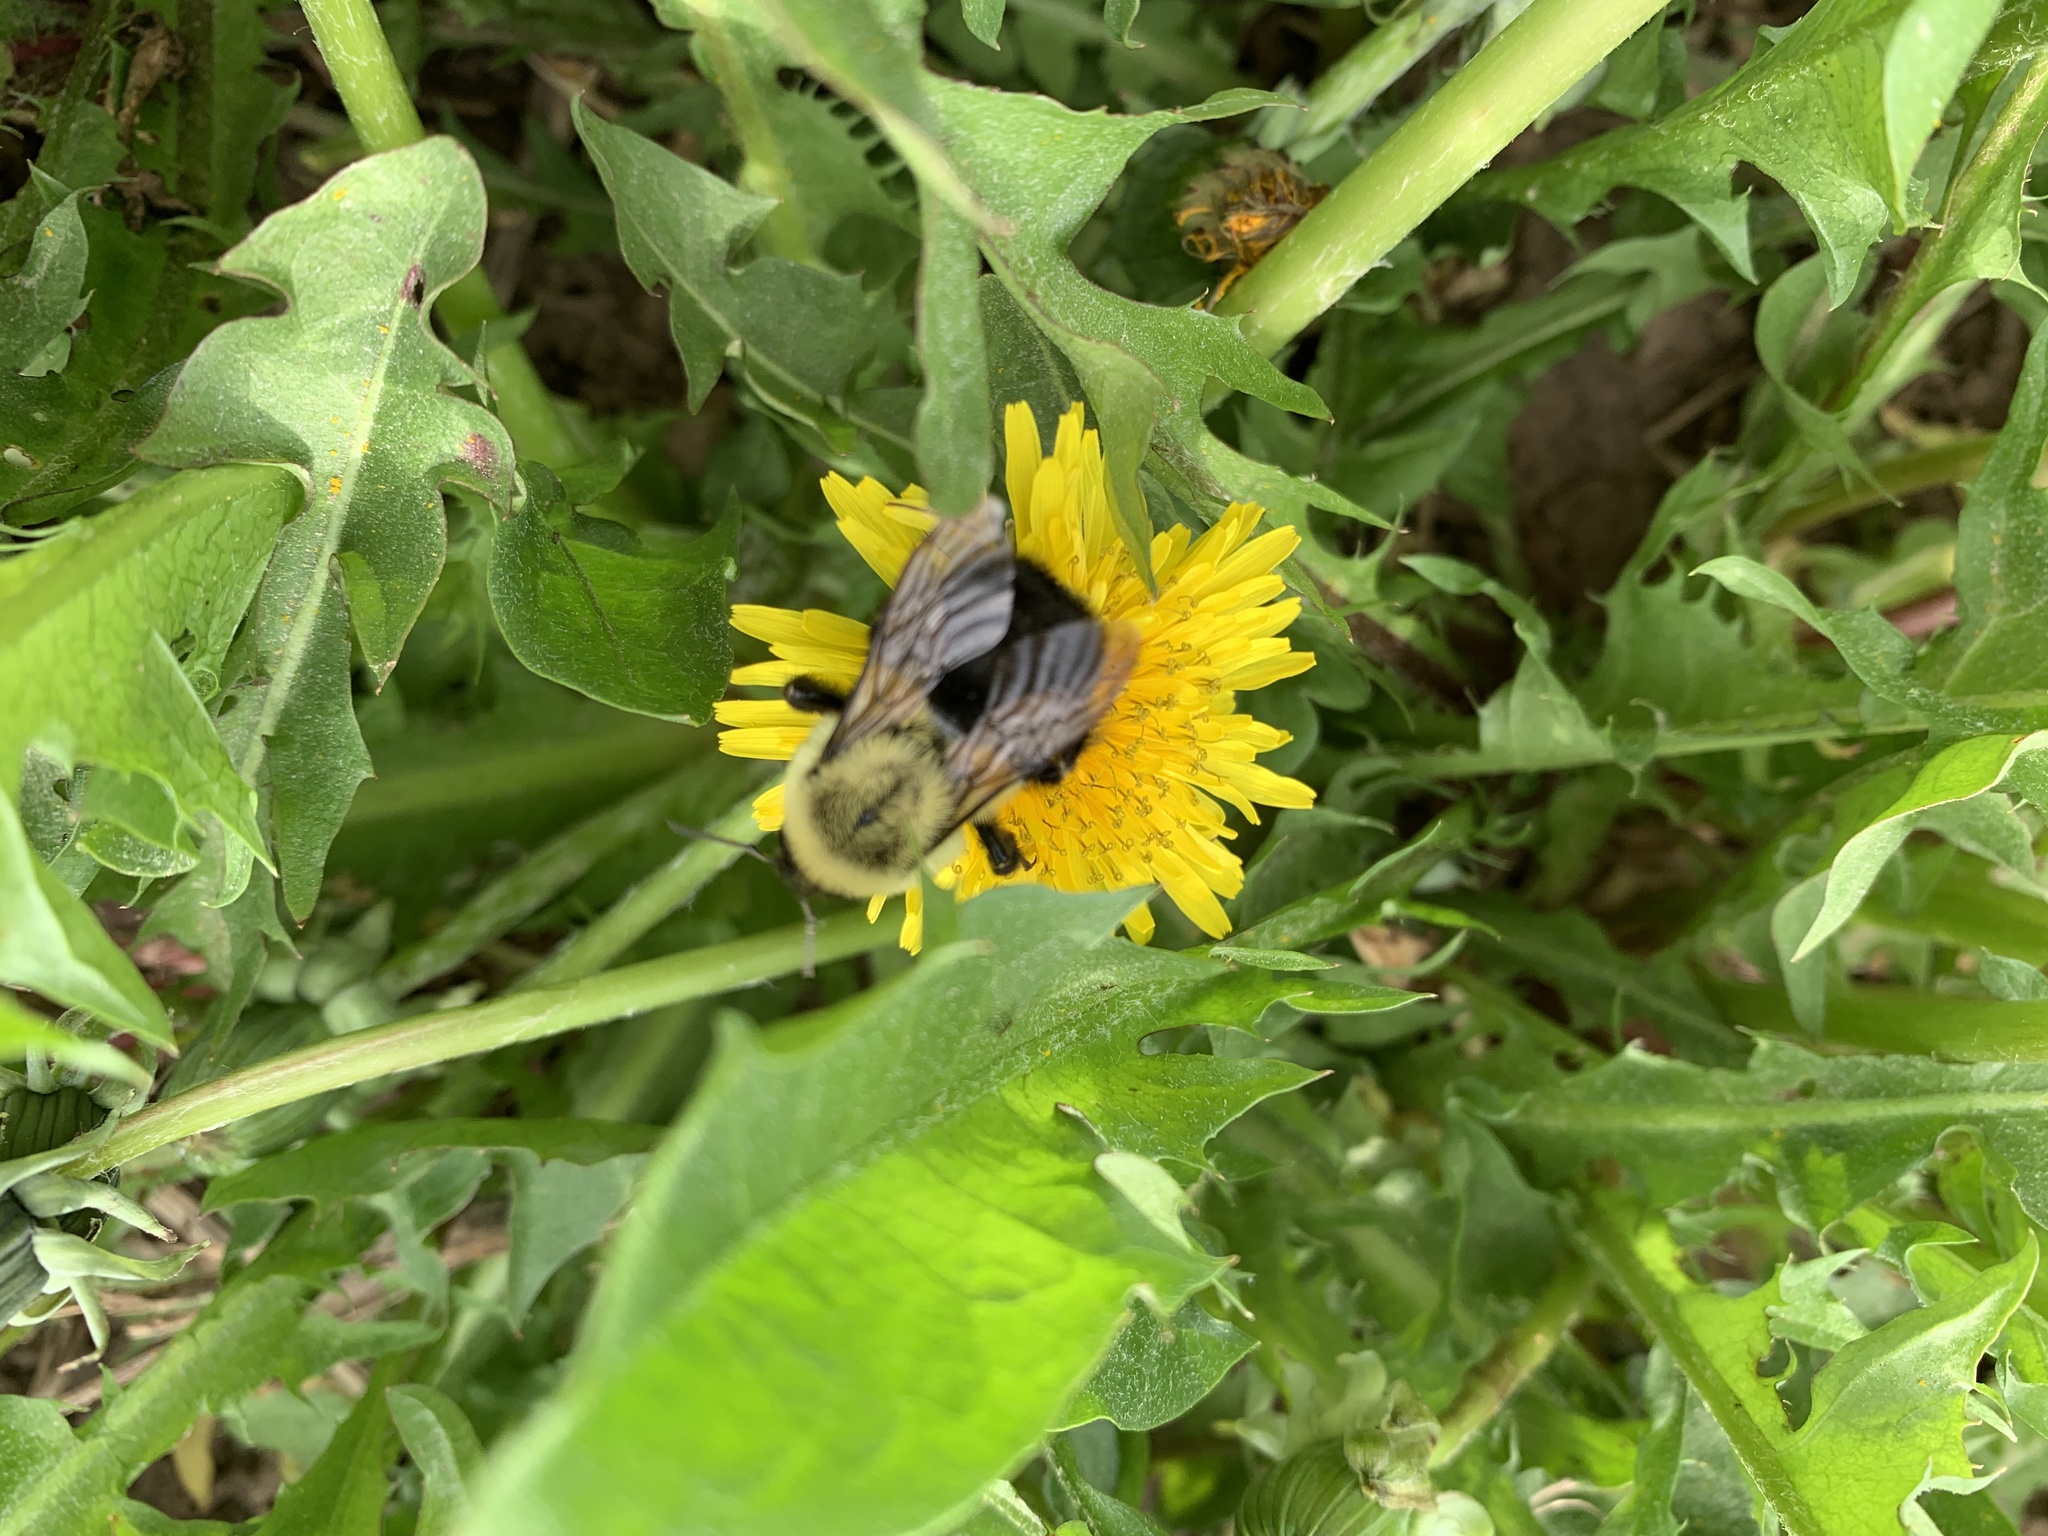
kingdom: Animalia
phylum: Arthropoda
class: Insecta
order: Hymenoptera
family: Apidae
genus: Bombus
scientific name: Bombus impatiens
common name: Common eastern bumble bee
